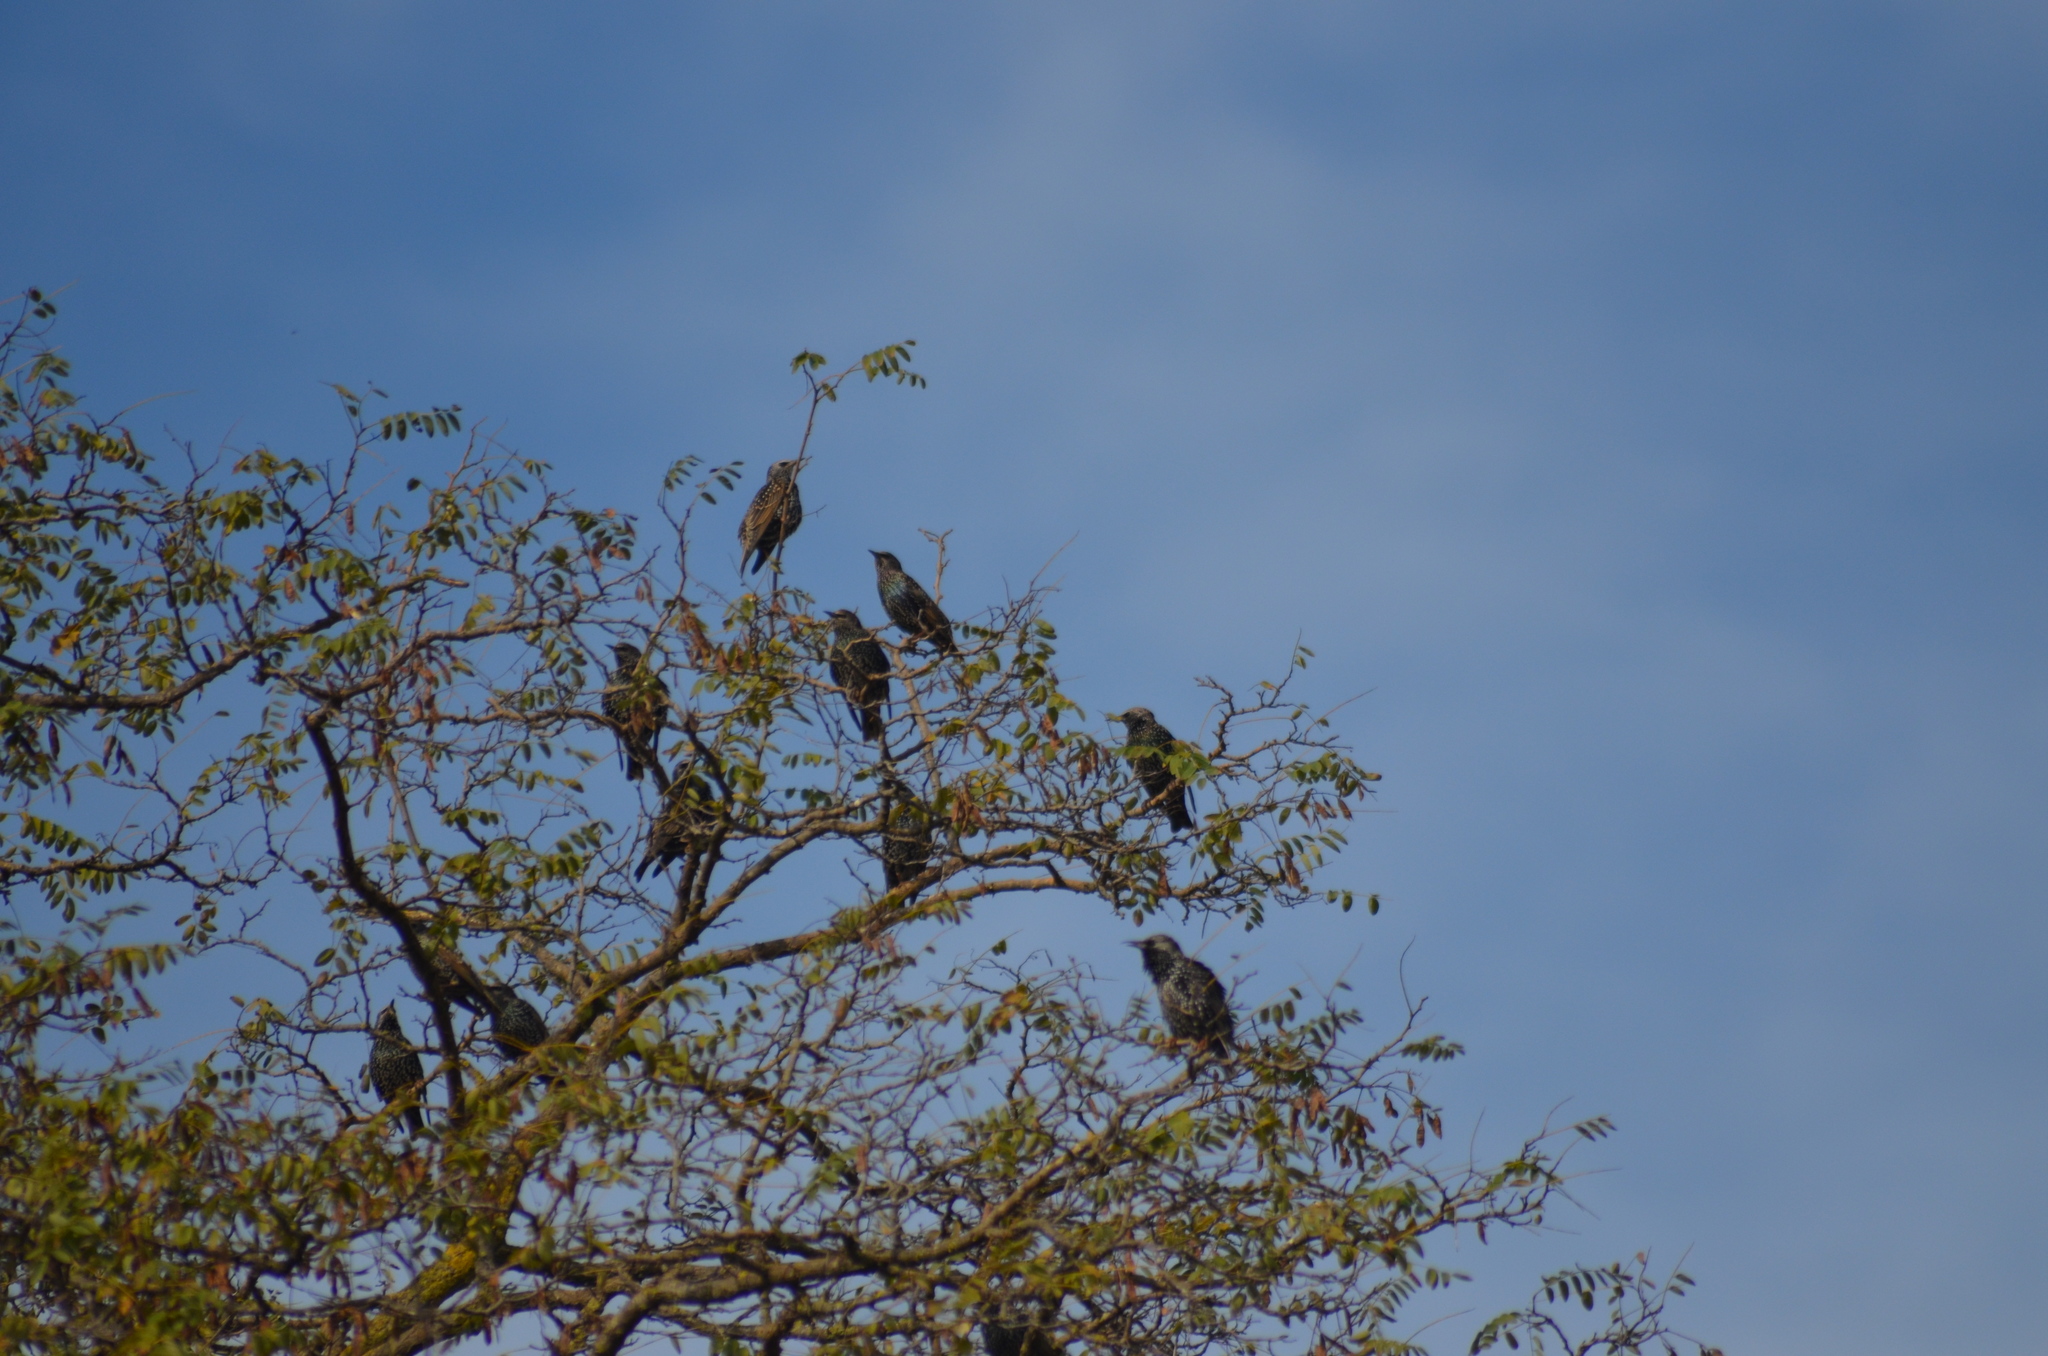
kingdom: Animalia
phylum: Chordata
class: Aves
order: Passeriformes
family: Sturnidae
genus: Sturnus
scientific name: Sturnus vulgaris
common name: Common starling
